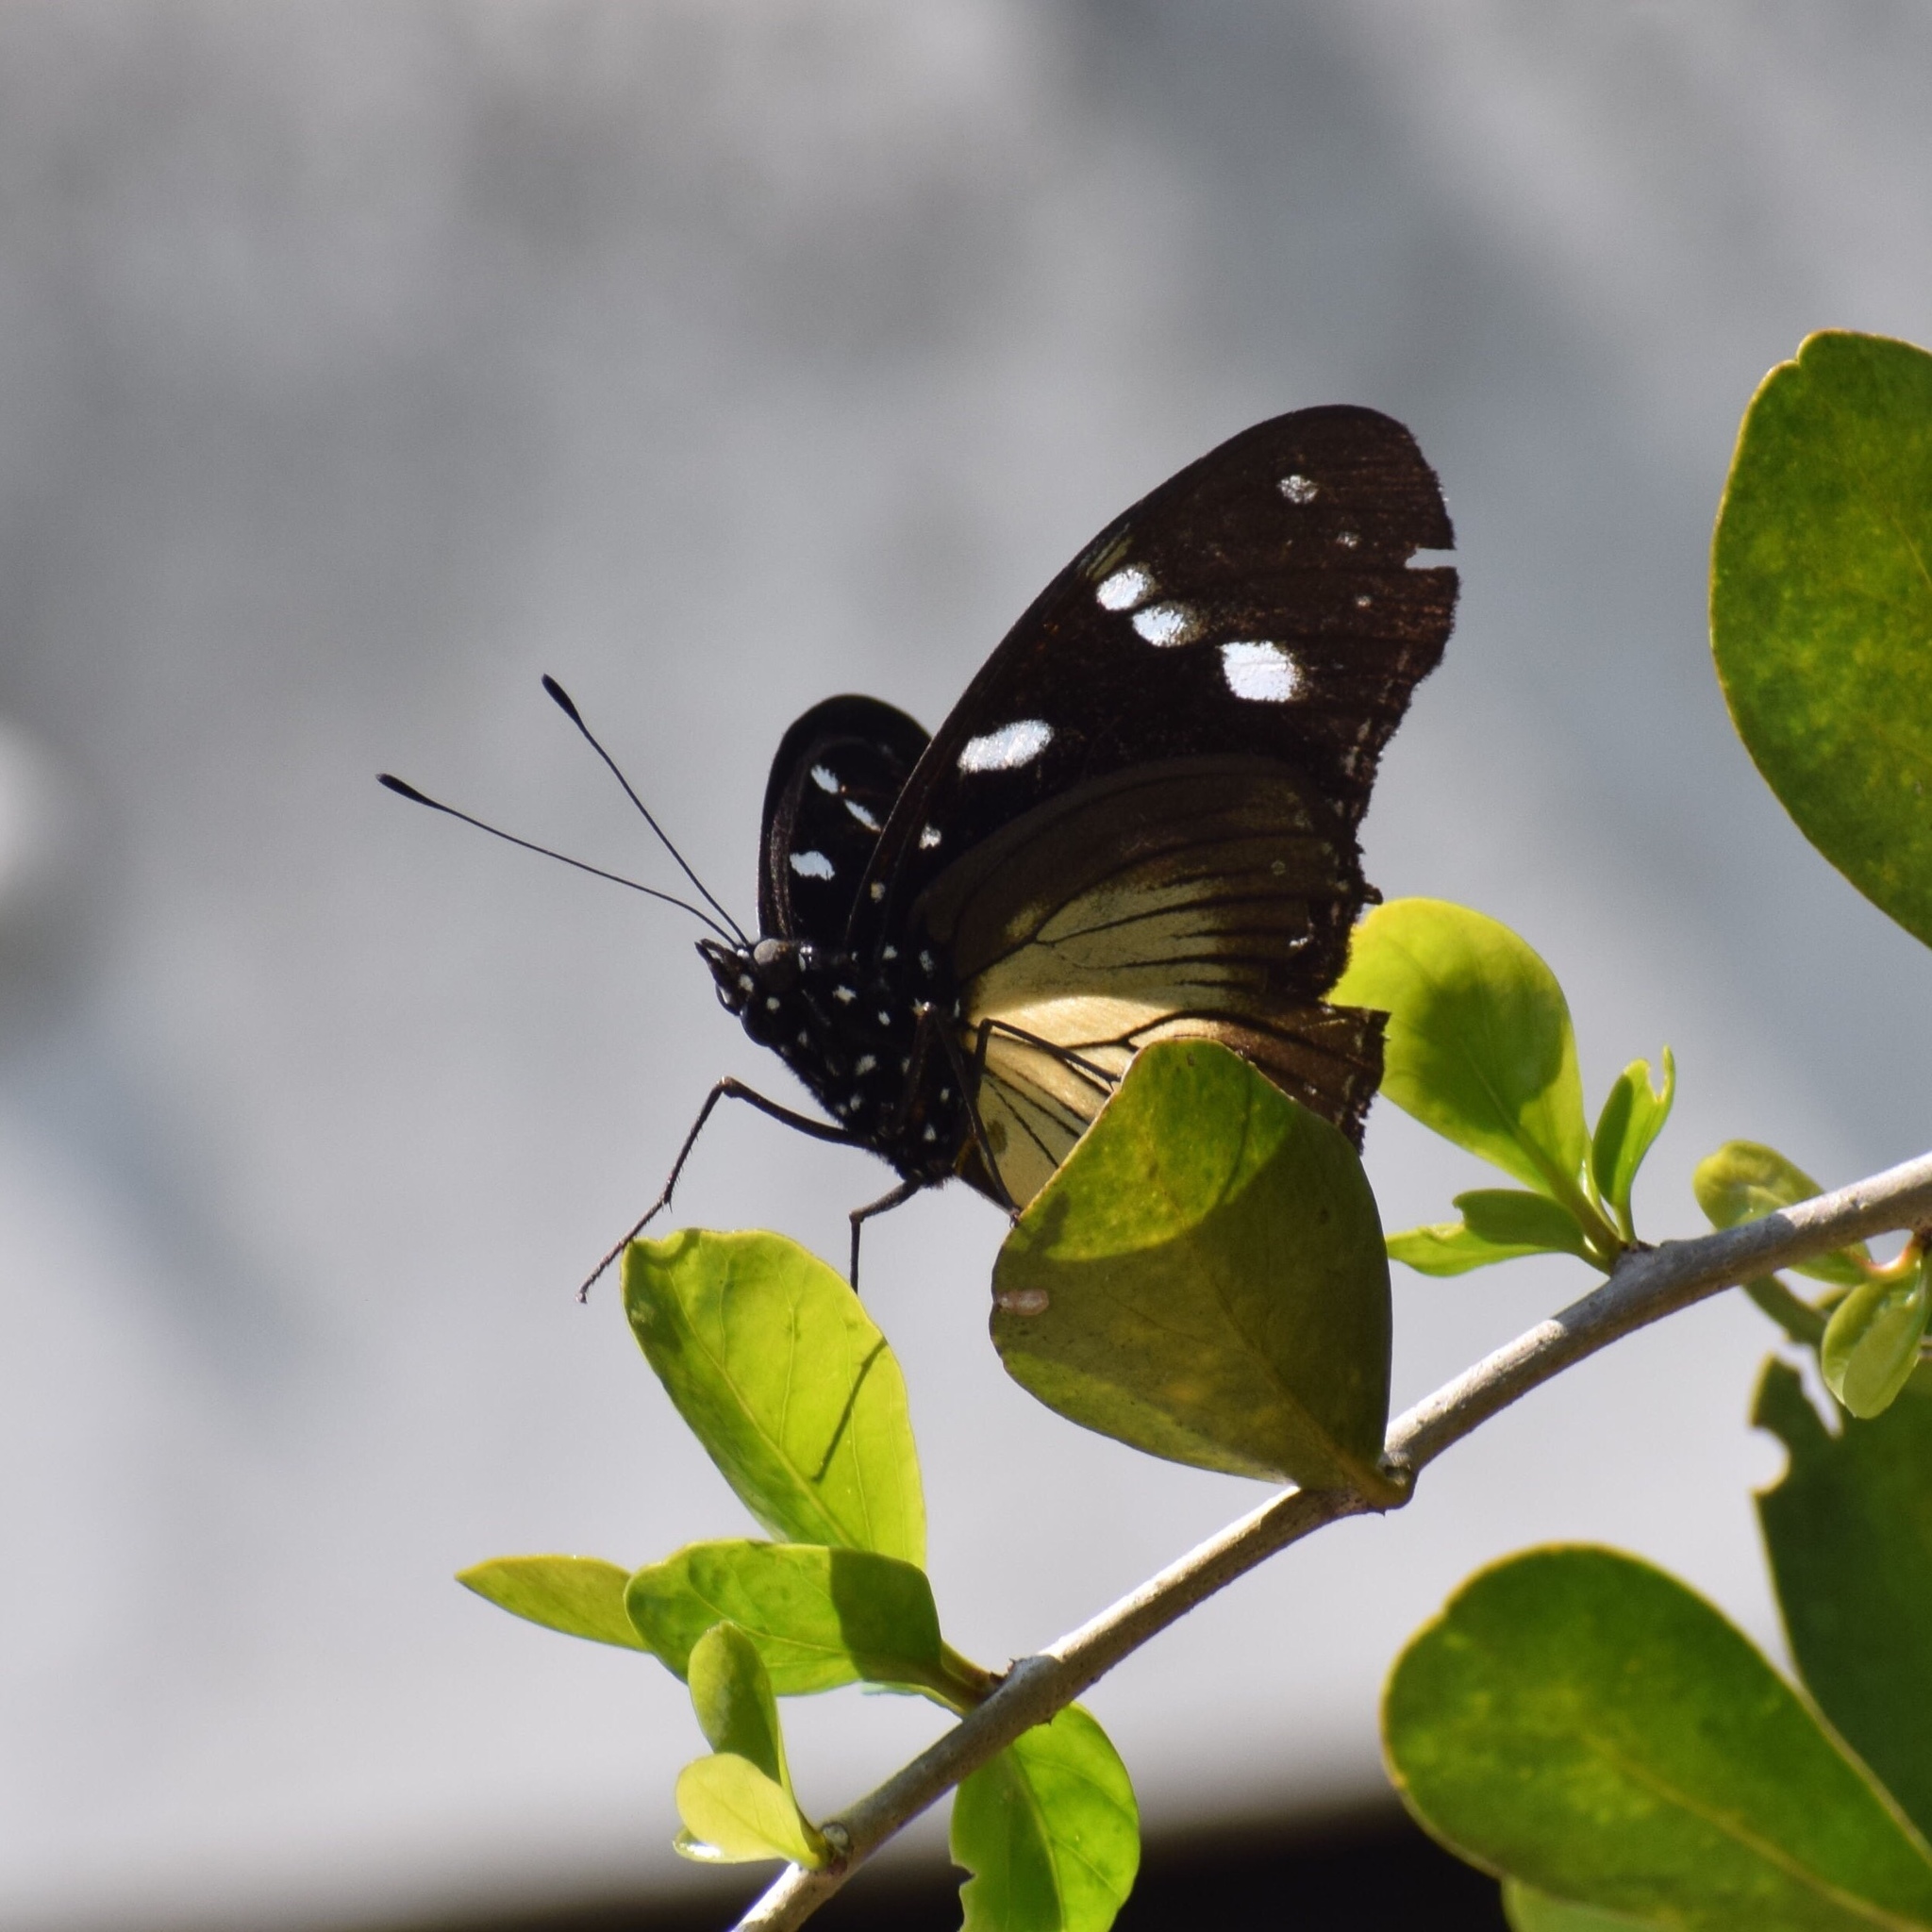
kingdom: Animalia
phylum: Arthropoda
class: Insecta
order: Lepidoptera
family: Nymphalidae
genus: Hypolimnas
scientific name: Hypolimnas dubius
